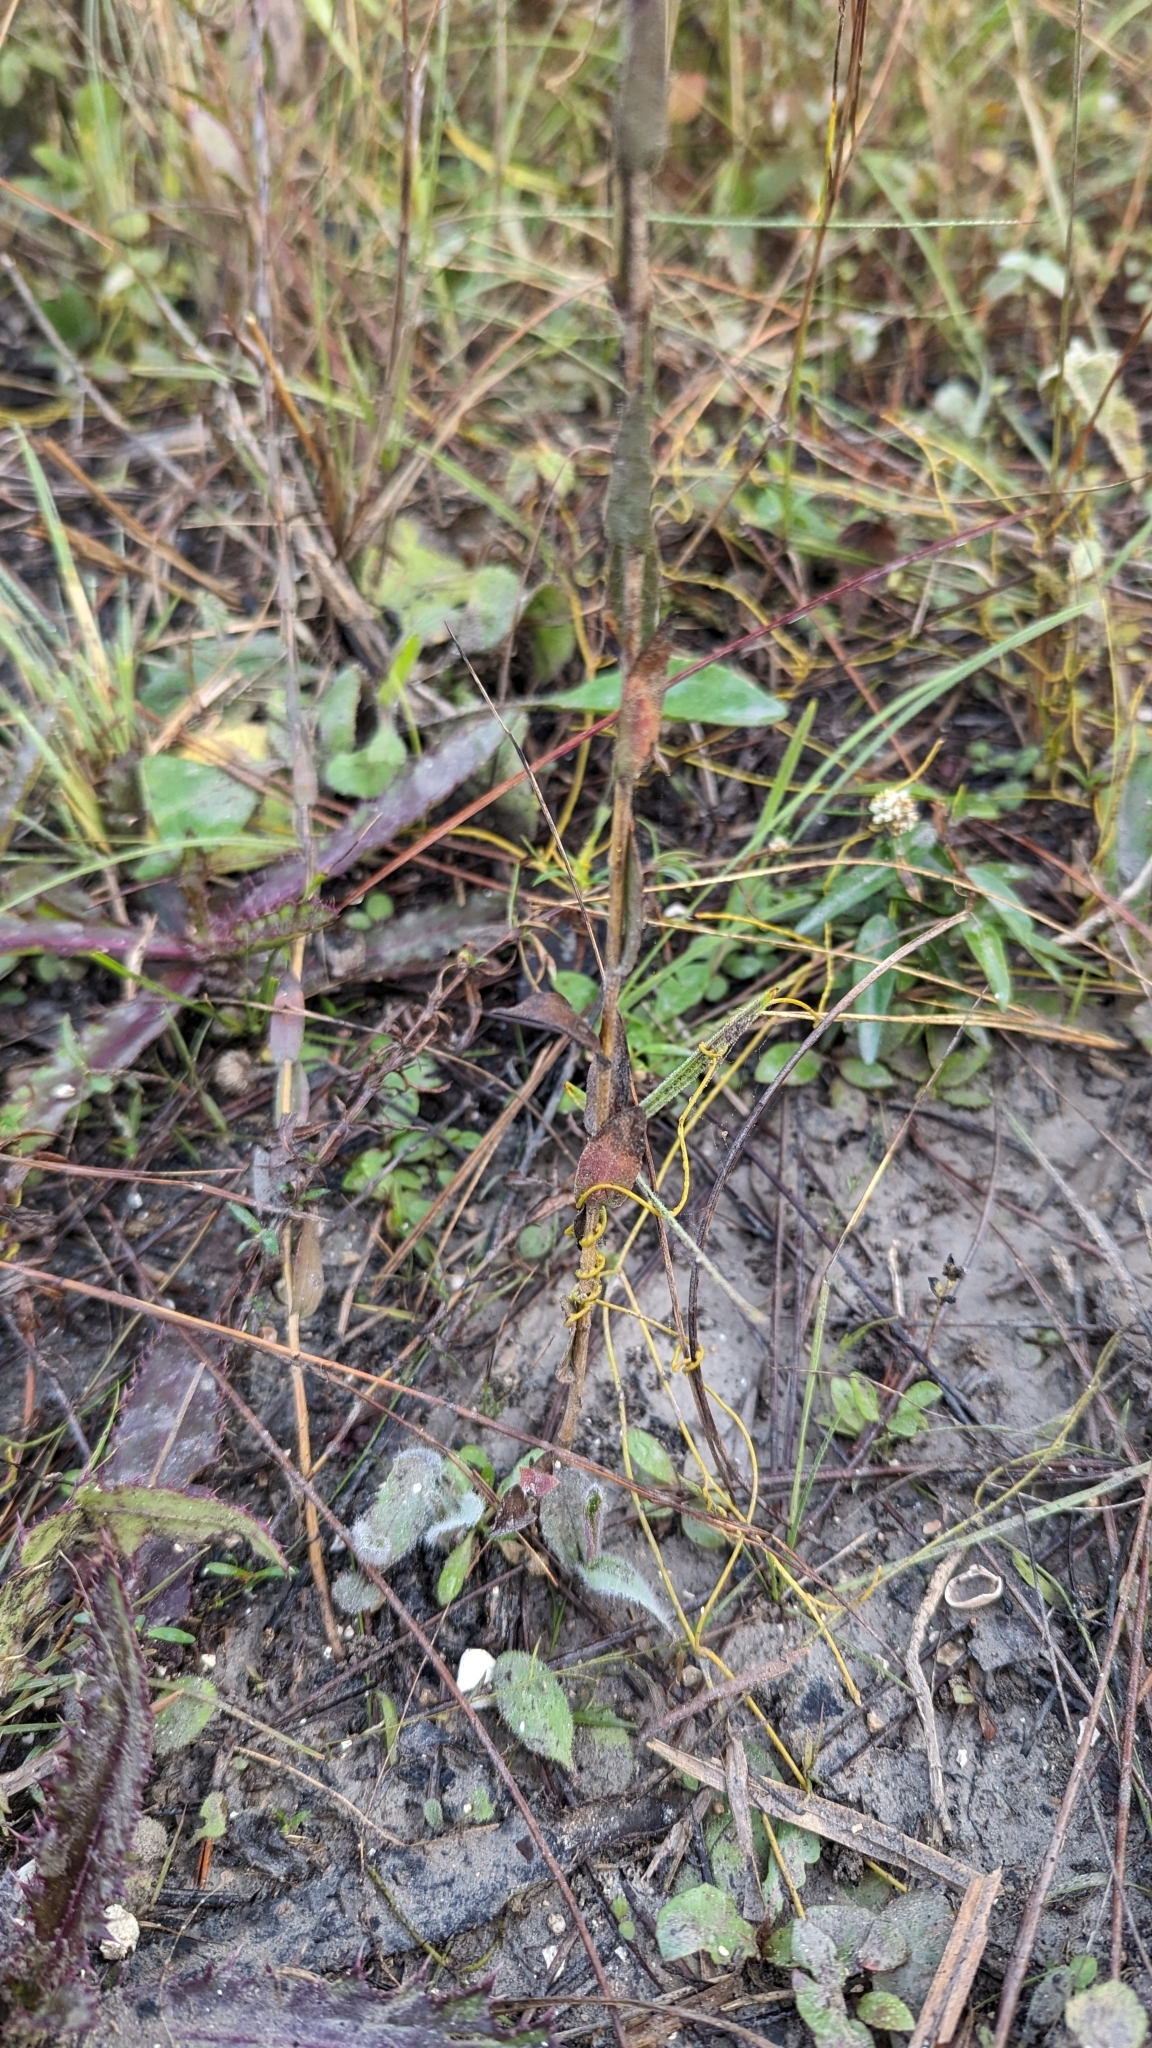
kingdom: Plantae
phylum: Tracheophyta
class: Magnoliopsida
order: Asterales
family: Asteraceae
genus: Symphyotrichum
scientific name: Symphyotrichum concolor
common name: Eastern silver aster
